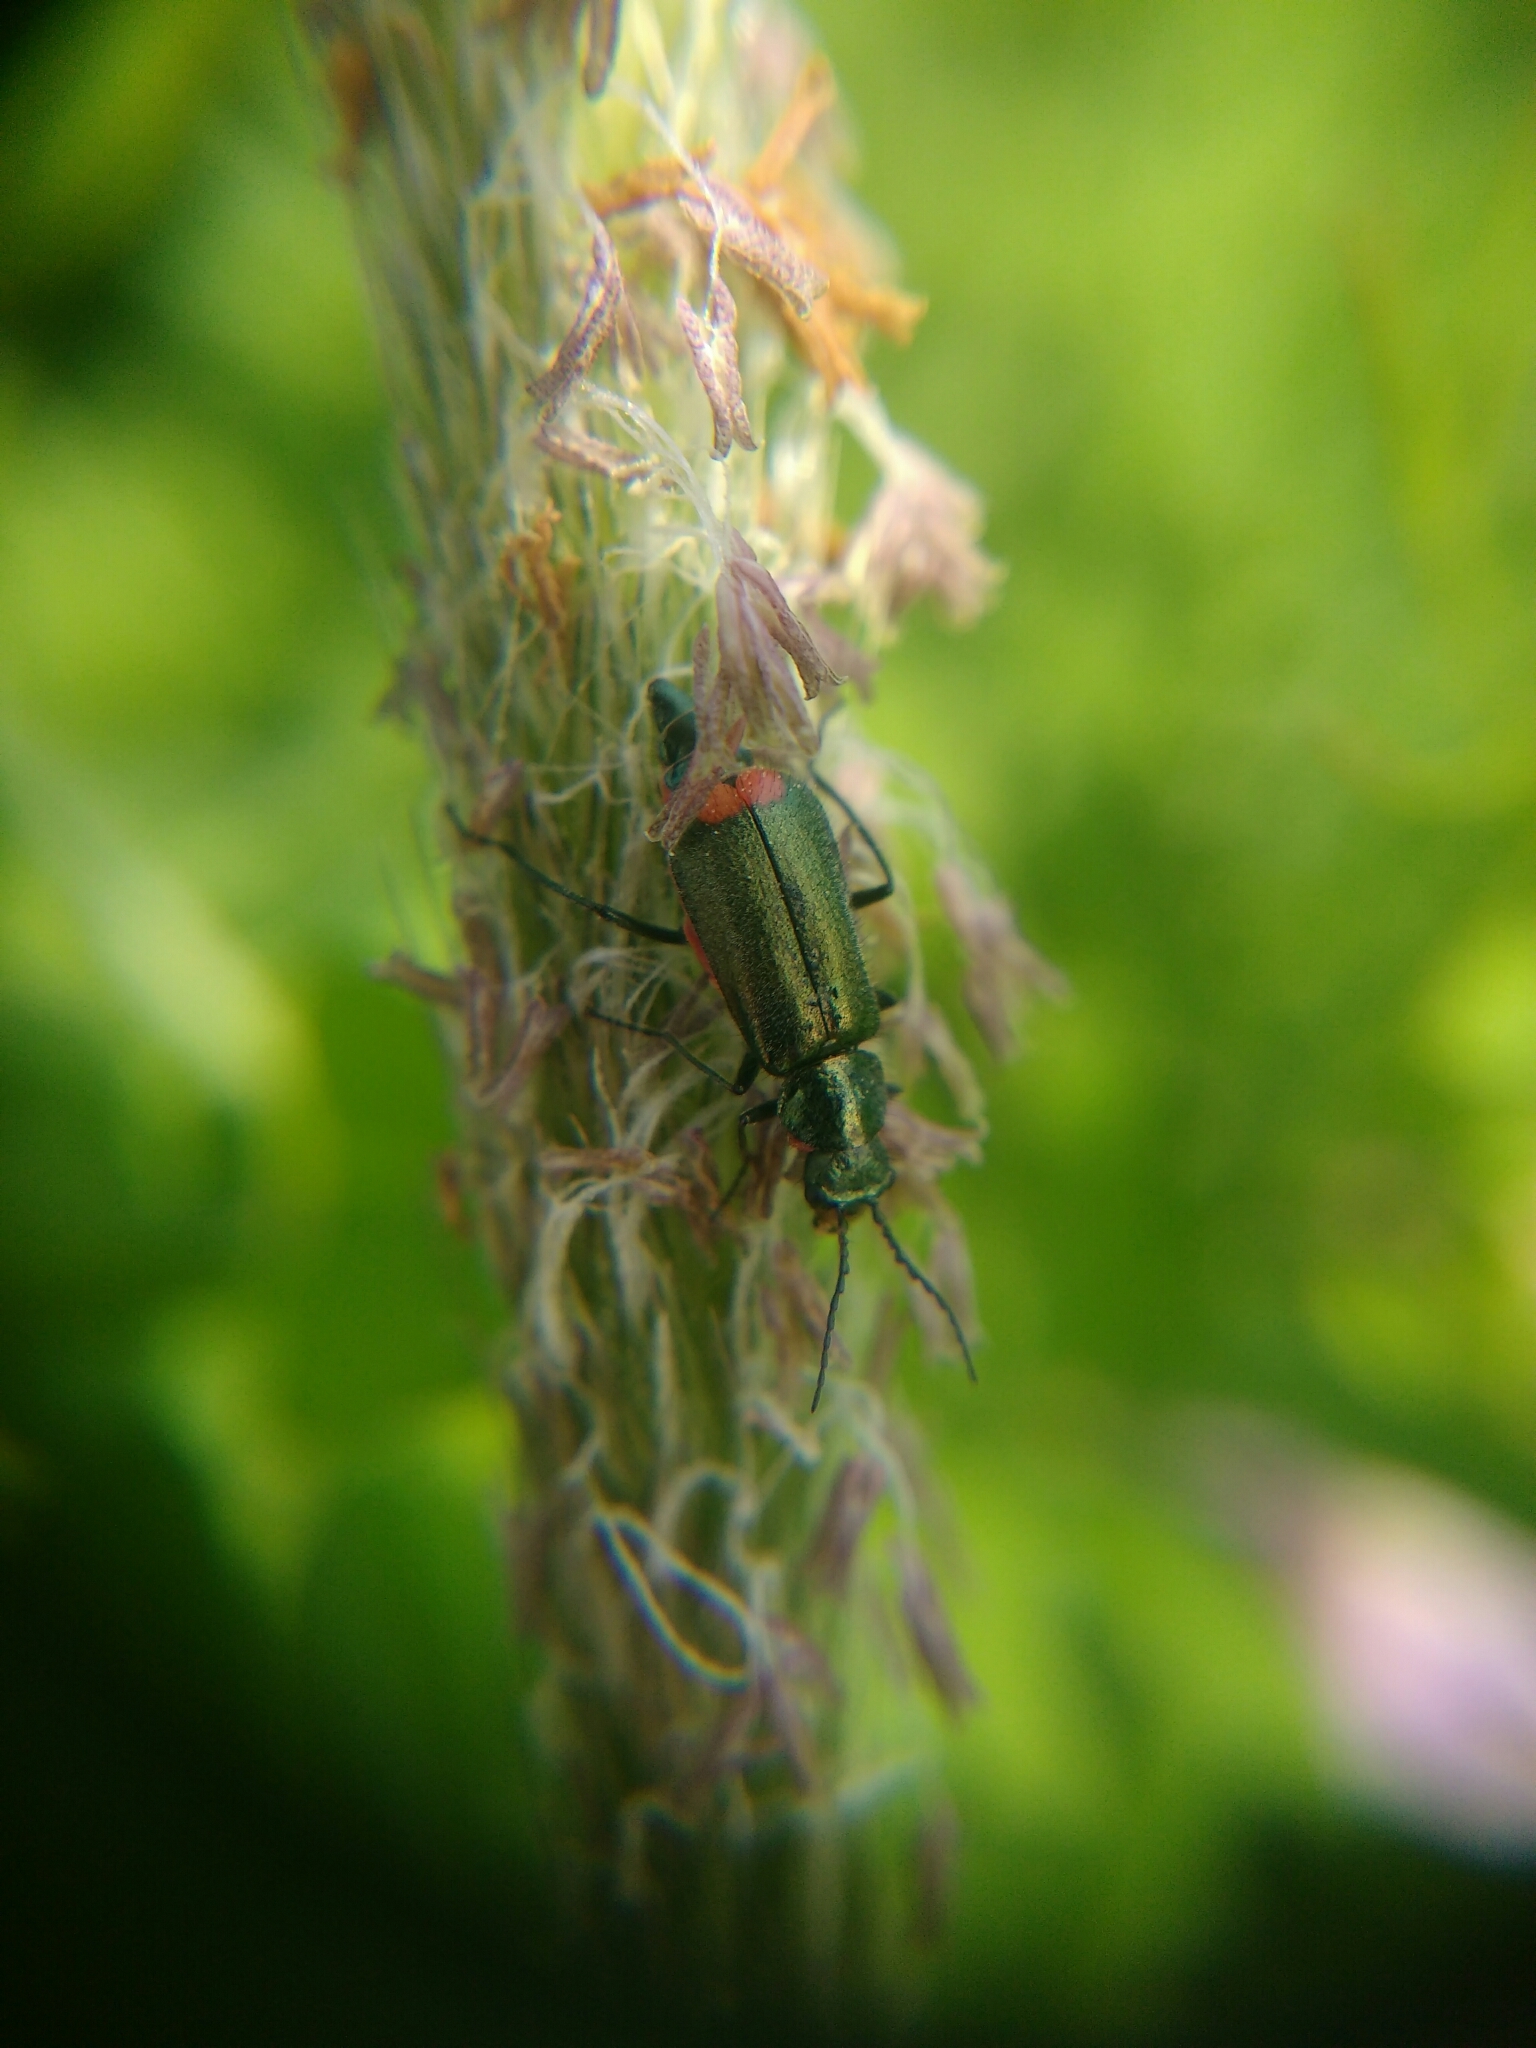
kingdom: Animalia
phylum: Arthropoda
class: Insecta
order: Coleoptera
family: Melyridae
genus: Malachius
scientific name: Malachius bipustulatus
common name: Malachite beetle
